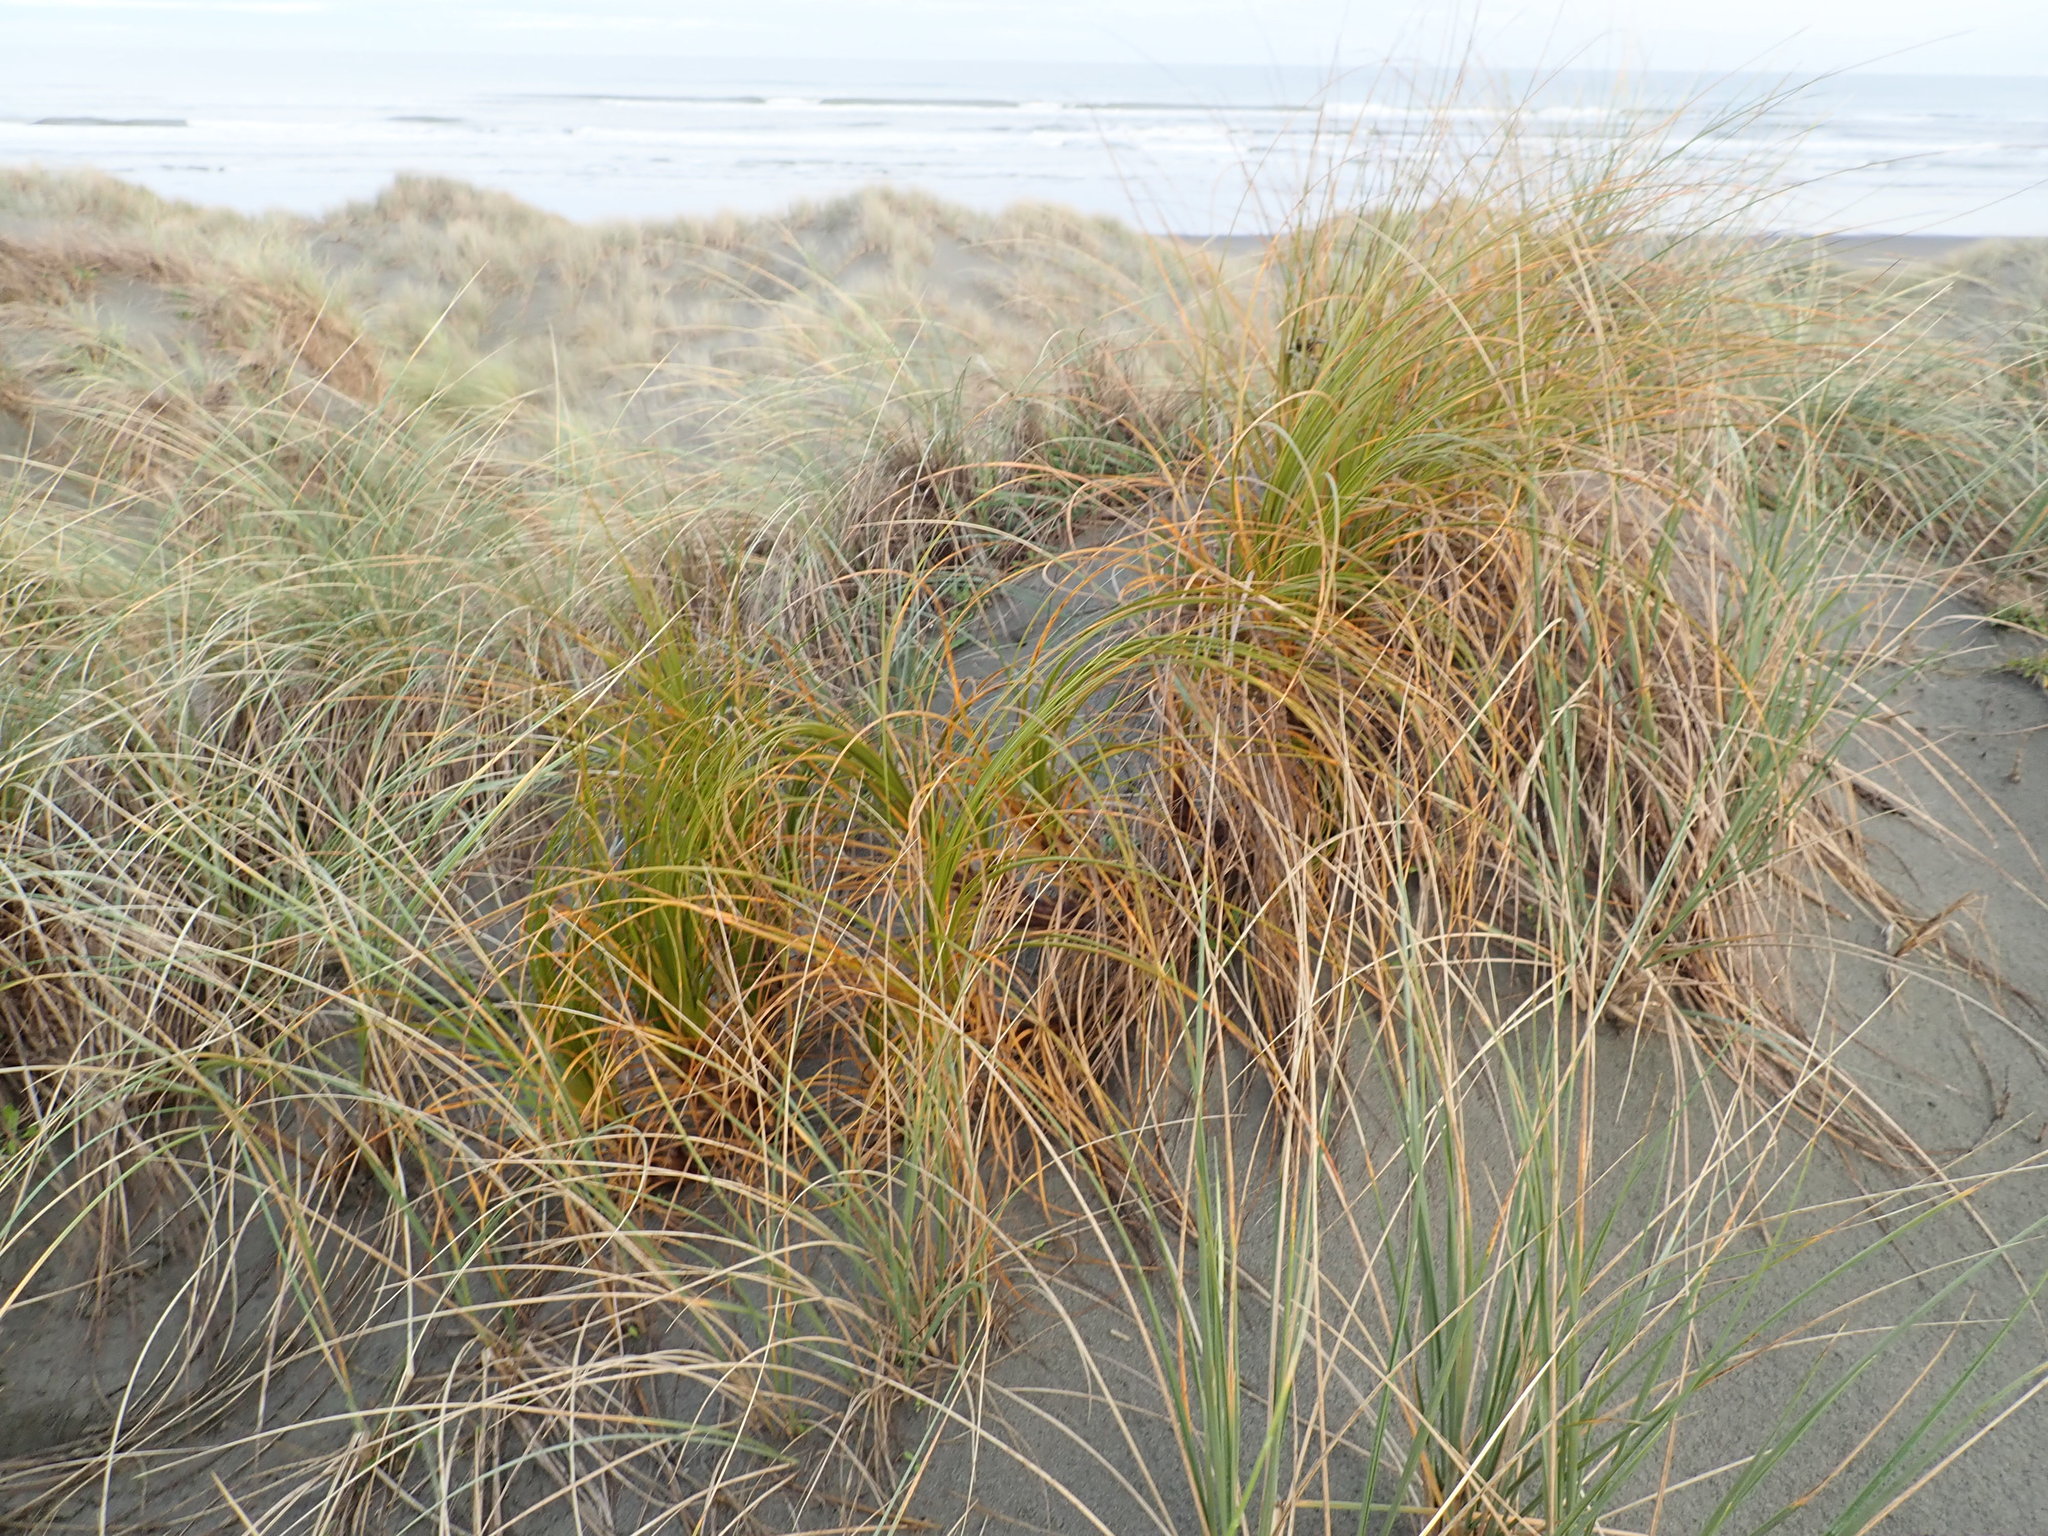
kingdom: Plantae
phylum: Tracheophyta
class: Liliopsida
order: Poales
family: Cyperaceae
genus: Ficinia
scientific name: Ficinia spiralis
